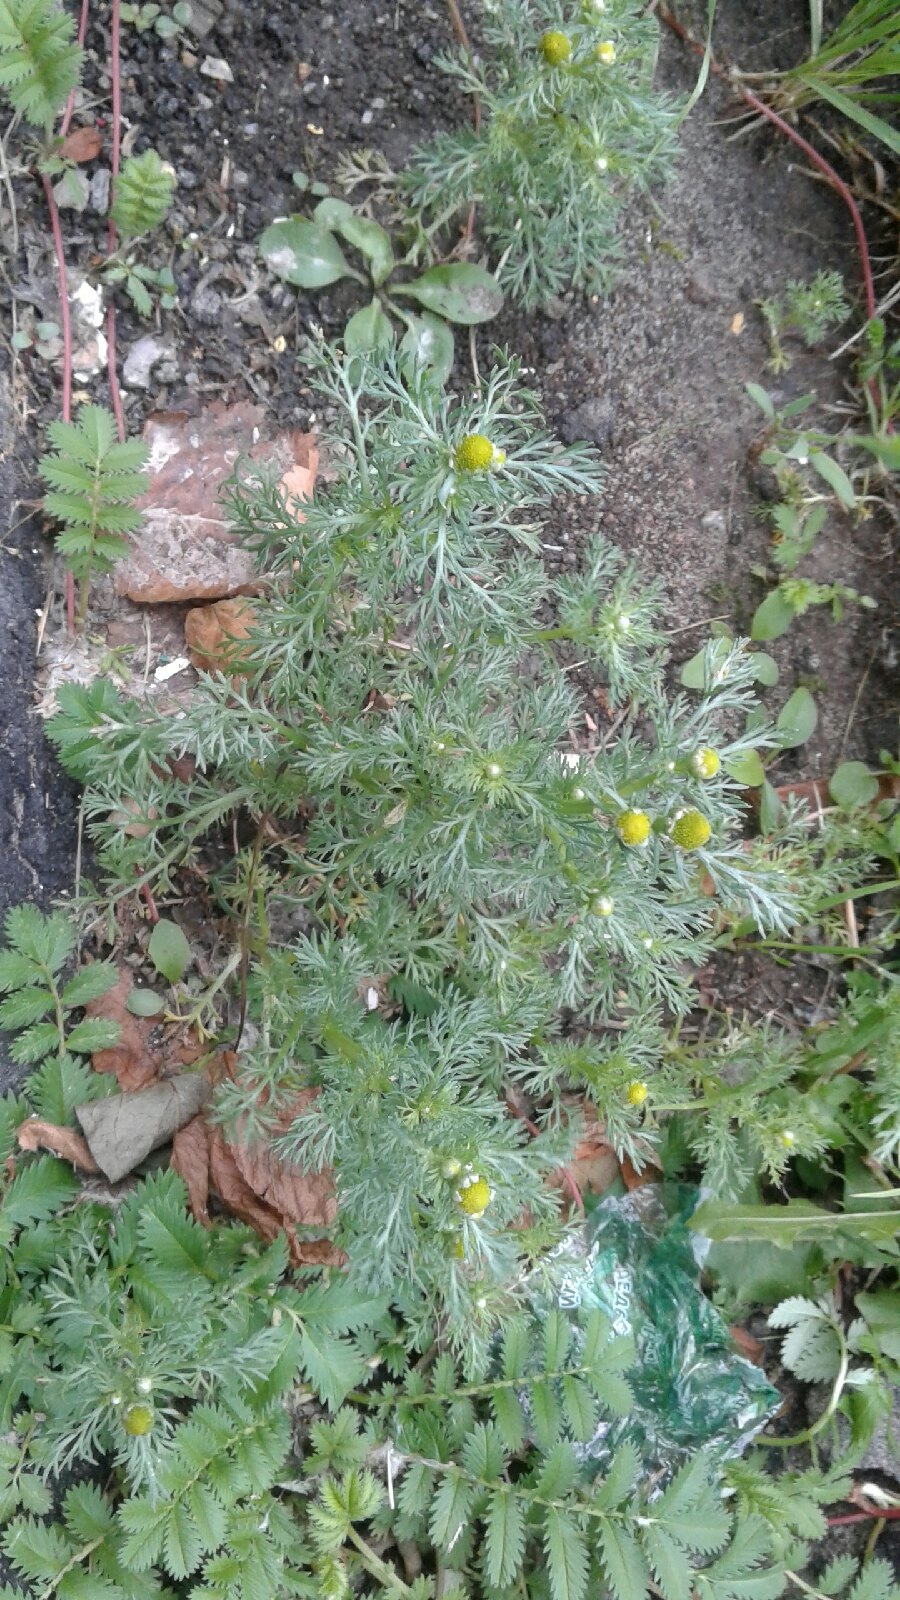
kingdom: Plantae
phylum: Tracheophyta
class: Magnoliopsida
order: Asterales
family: Asteraceae
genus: Matricaria
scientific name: Matricaria discoidea
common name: Disc mayweed
